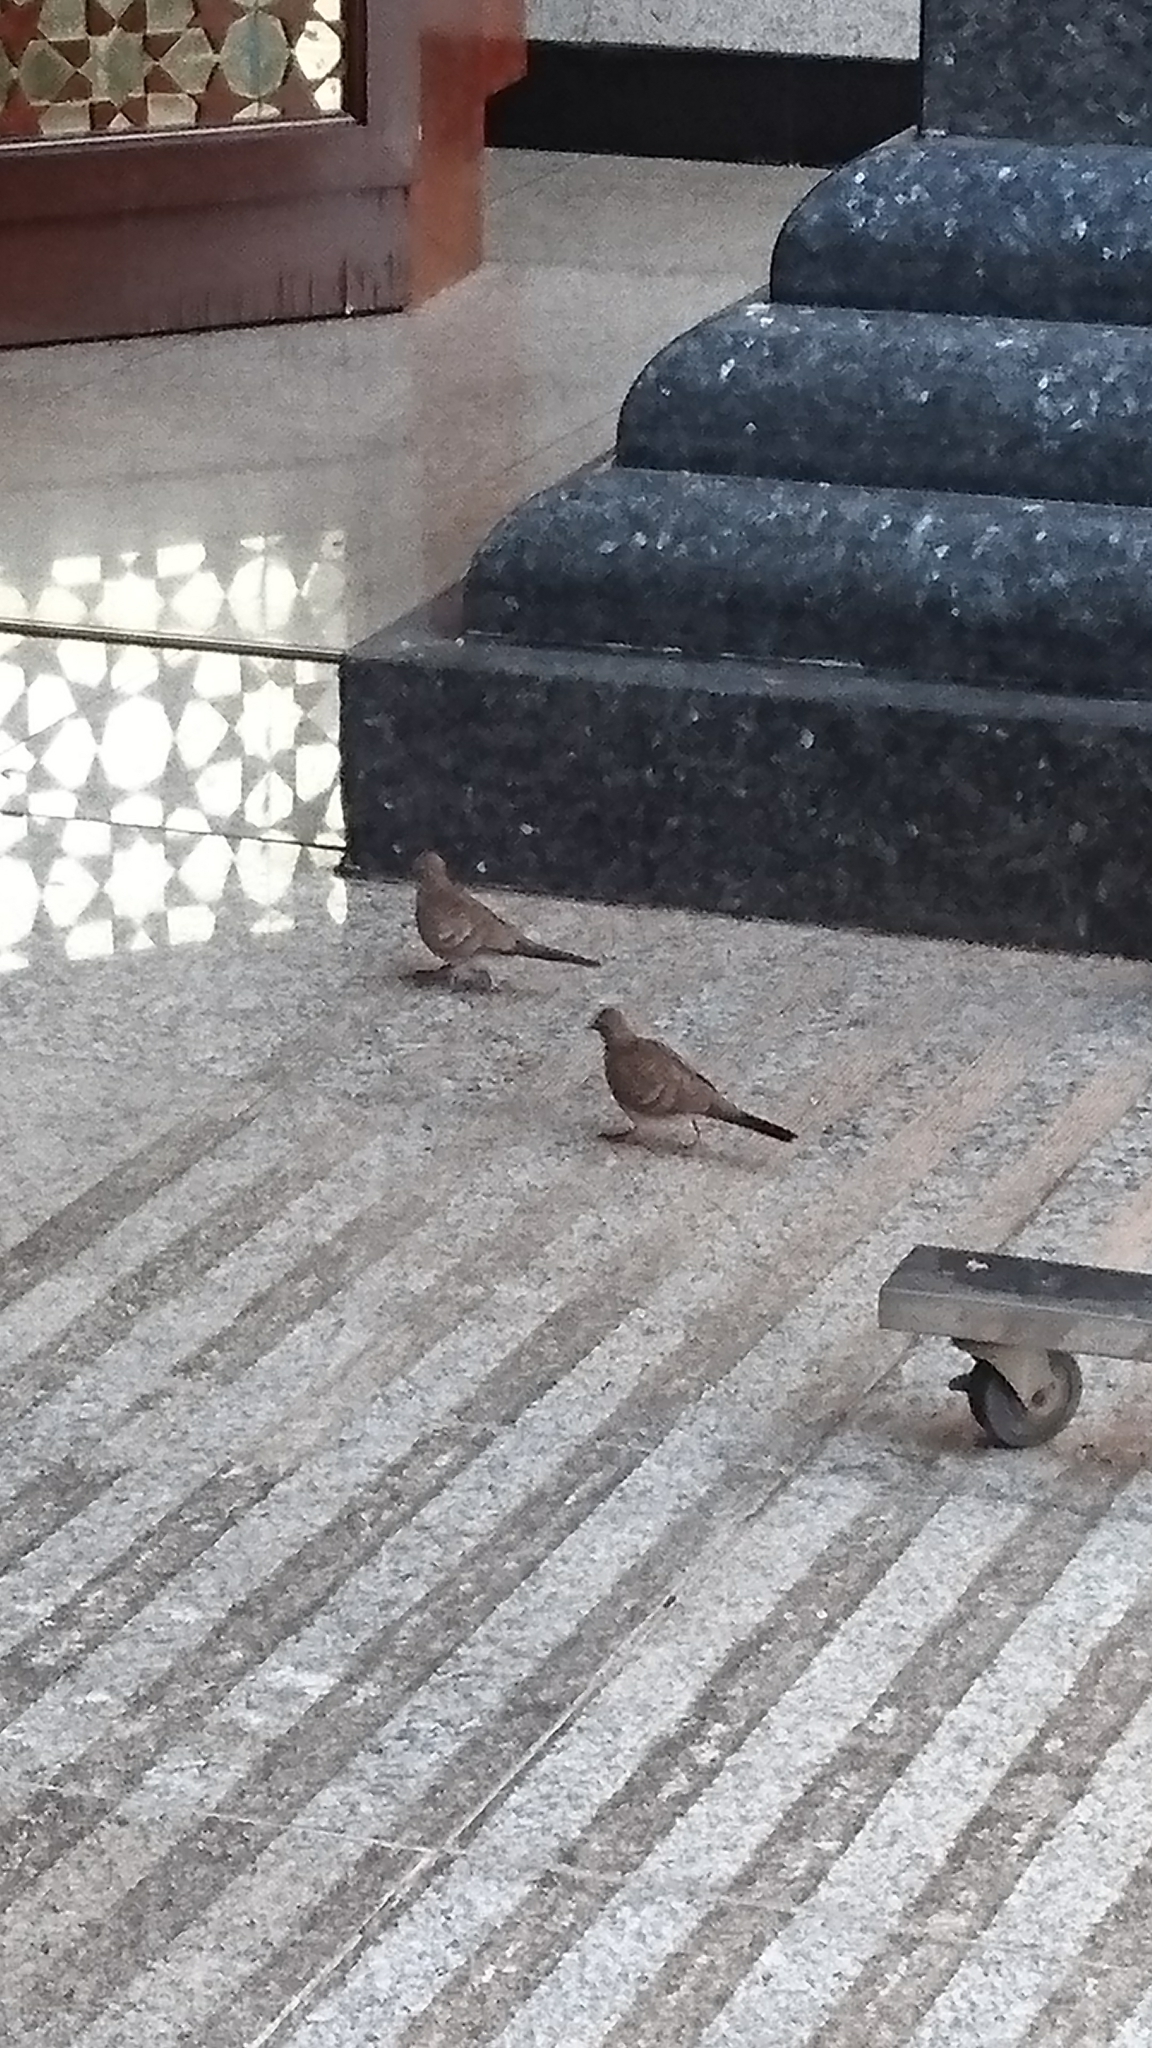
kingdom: Animalia
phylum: Chordata
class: Aves
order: Columbiformes
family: Columbidae
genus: Geopelia
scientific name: Geopelia striata
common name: Zebra dove
